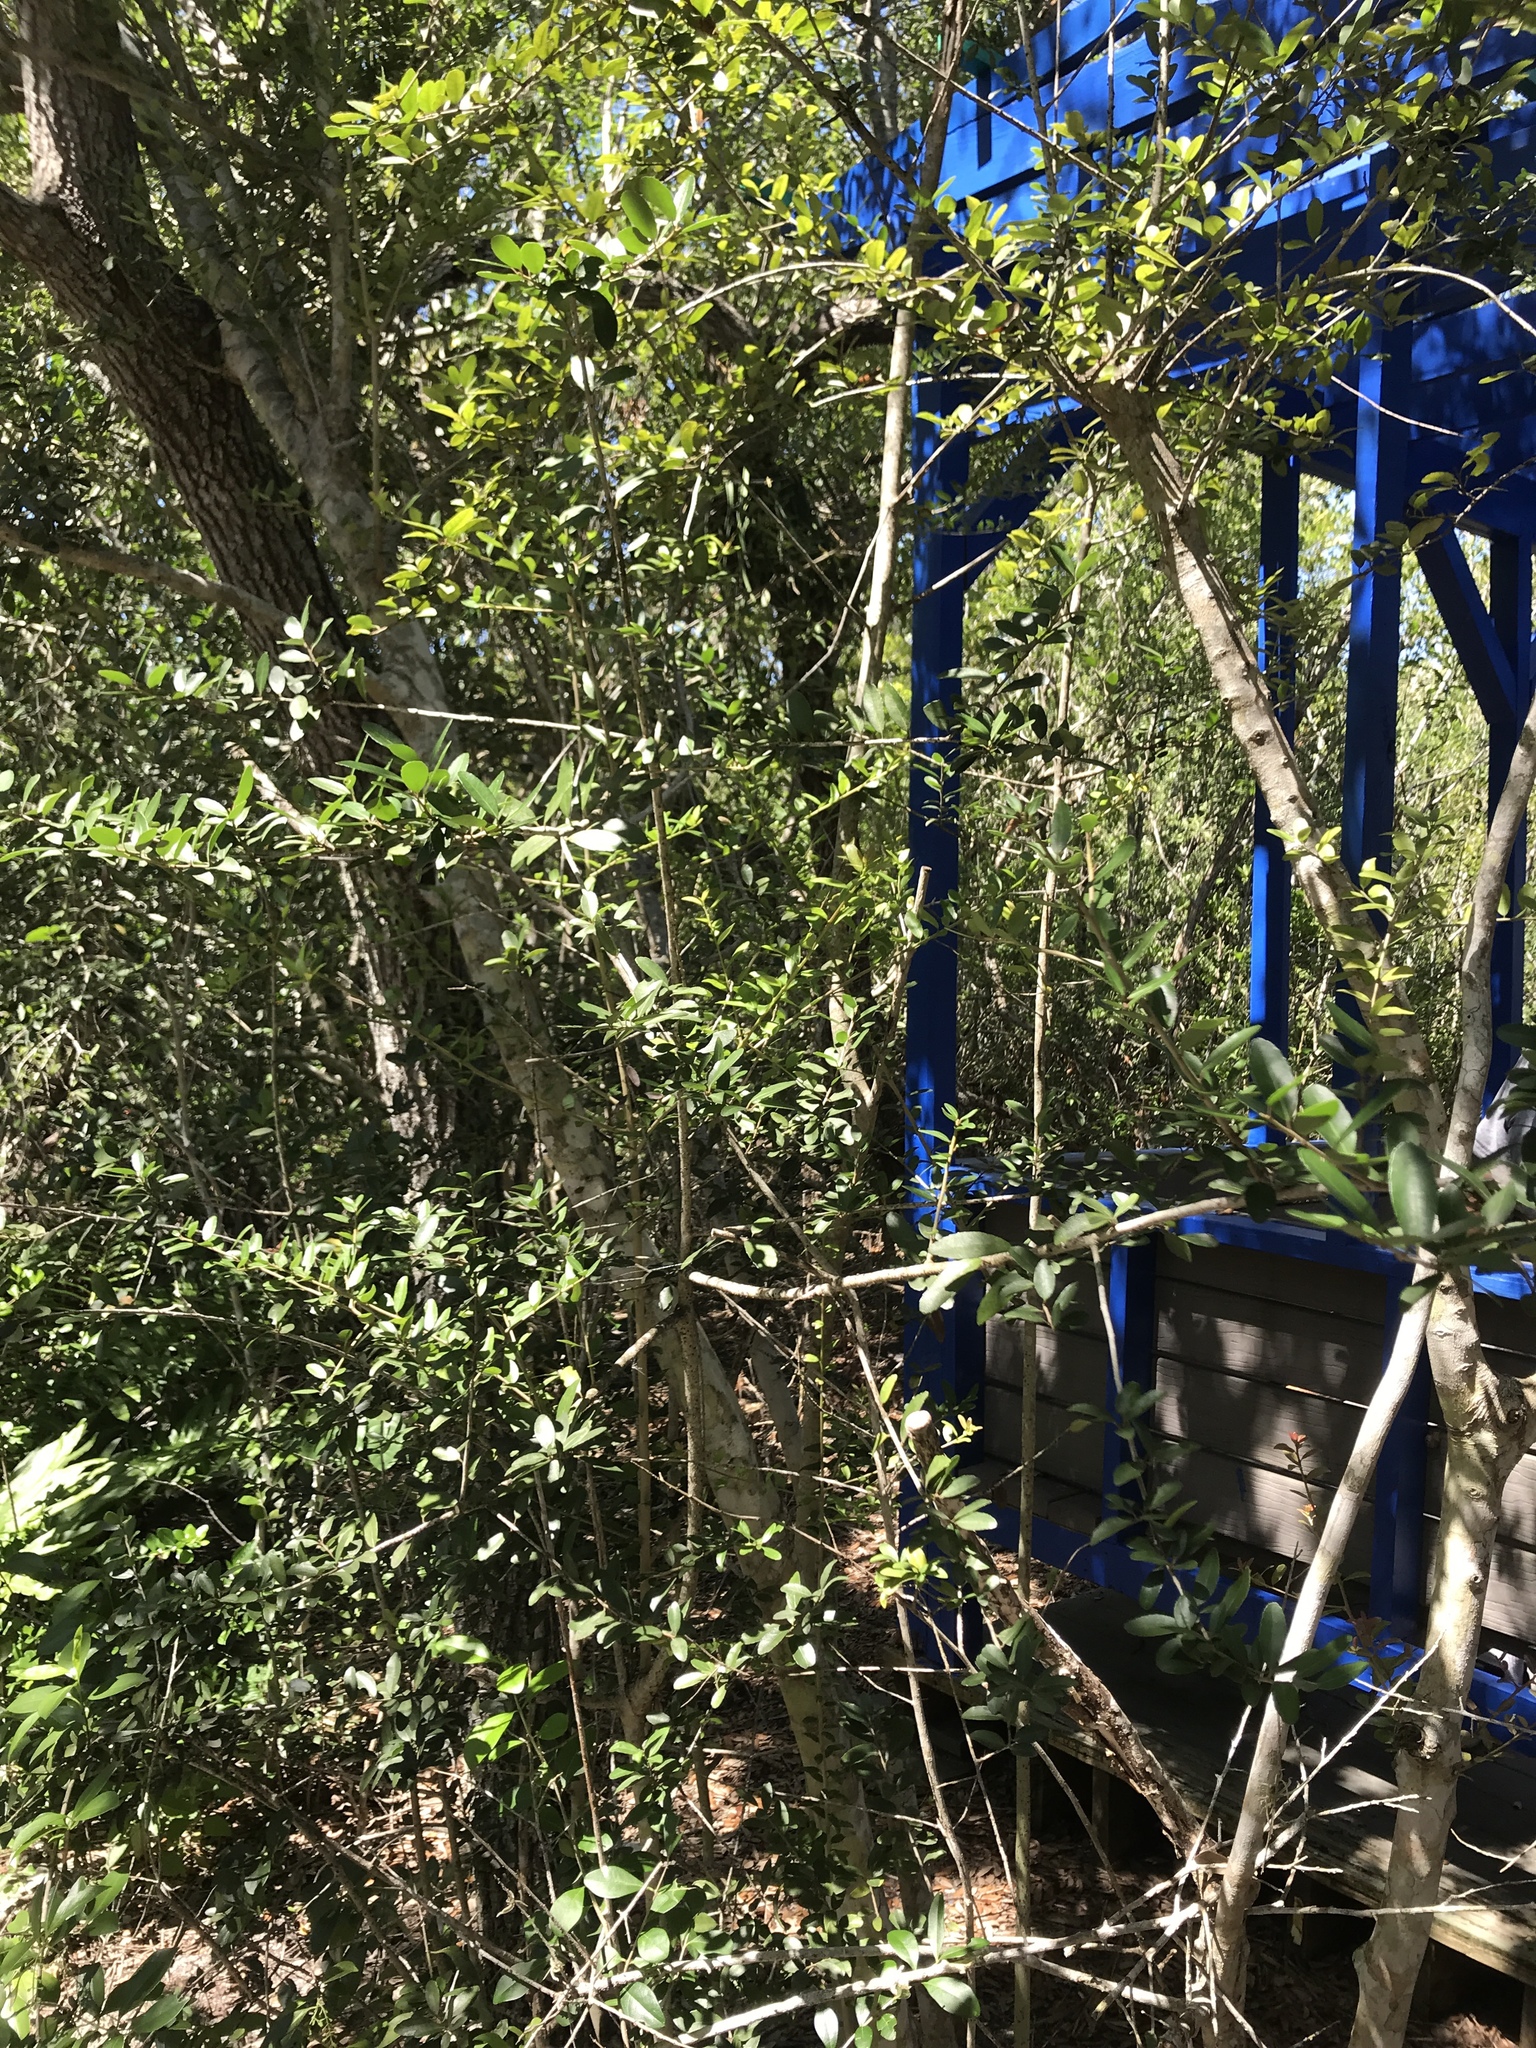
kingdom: Plantae
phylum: Tracheophyta
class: Magnoliopsida
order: Aquifoliales
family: Aquifoliaceae
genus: Ilex
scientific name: Ilex vomitoria
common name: Yaupon holly
